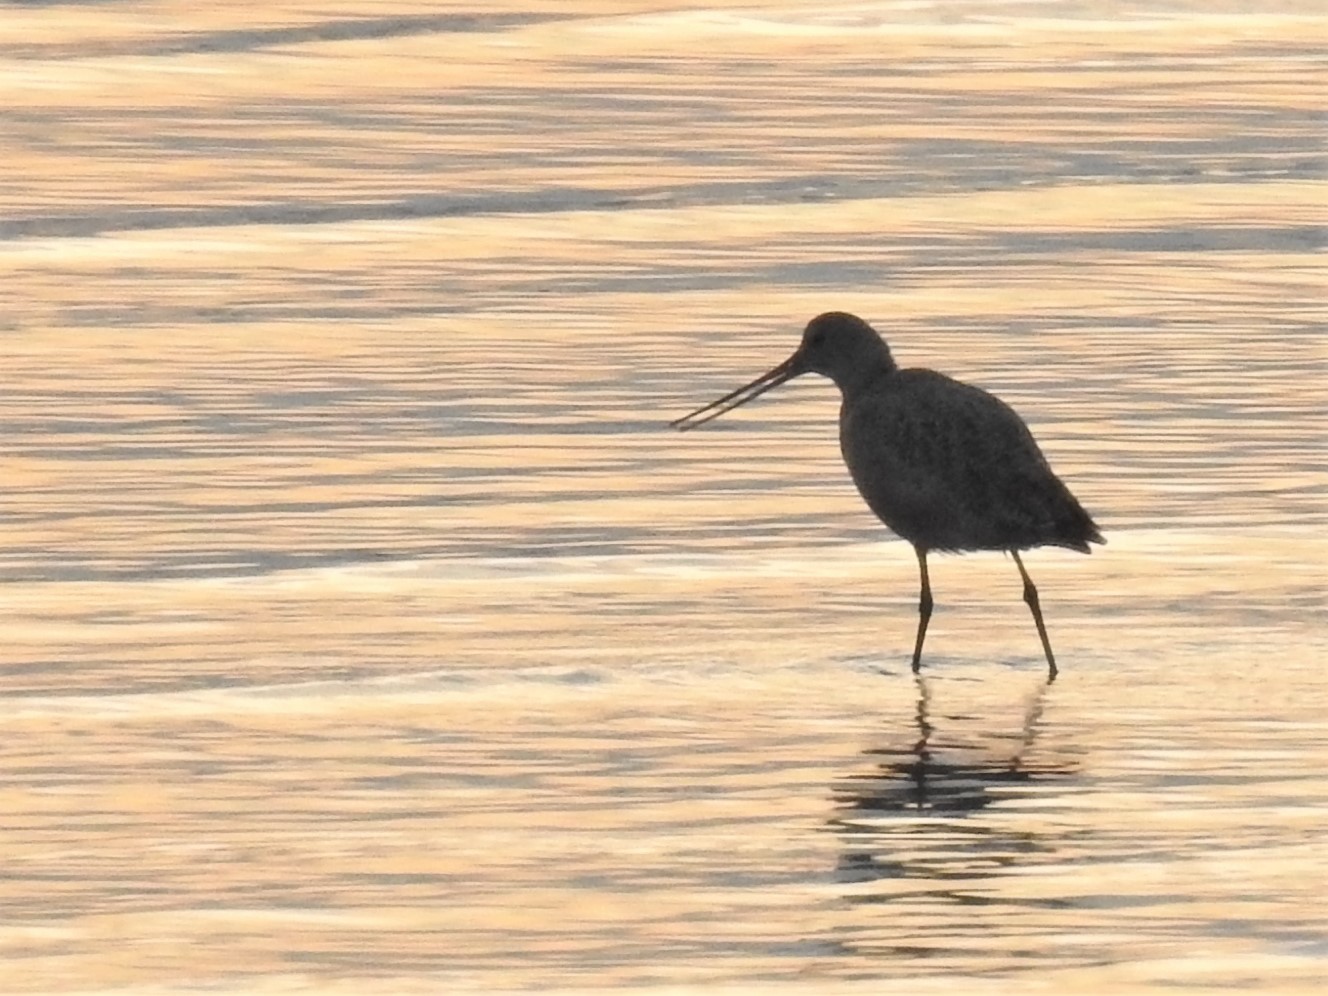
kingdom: Animalia
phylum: Chordata
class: Aves
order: Charadriiformes
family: Scolopacidae
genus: Limosa
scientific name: Limosa fedoa
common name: Marbled godwit
